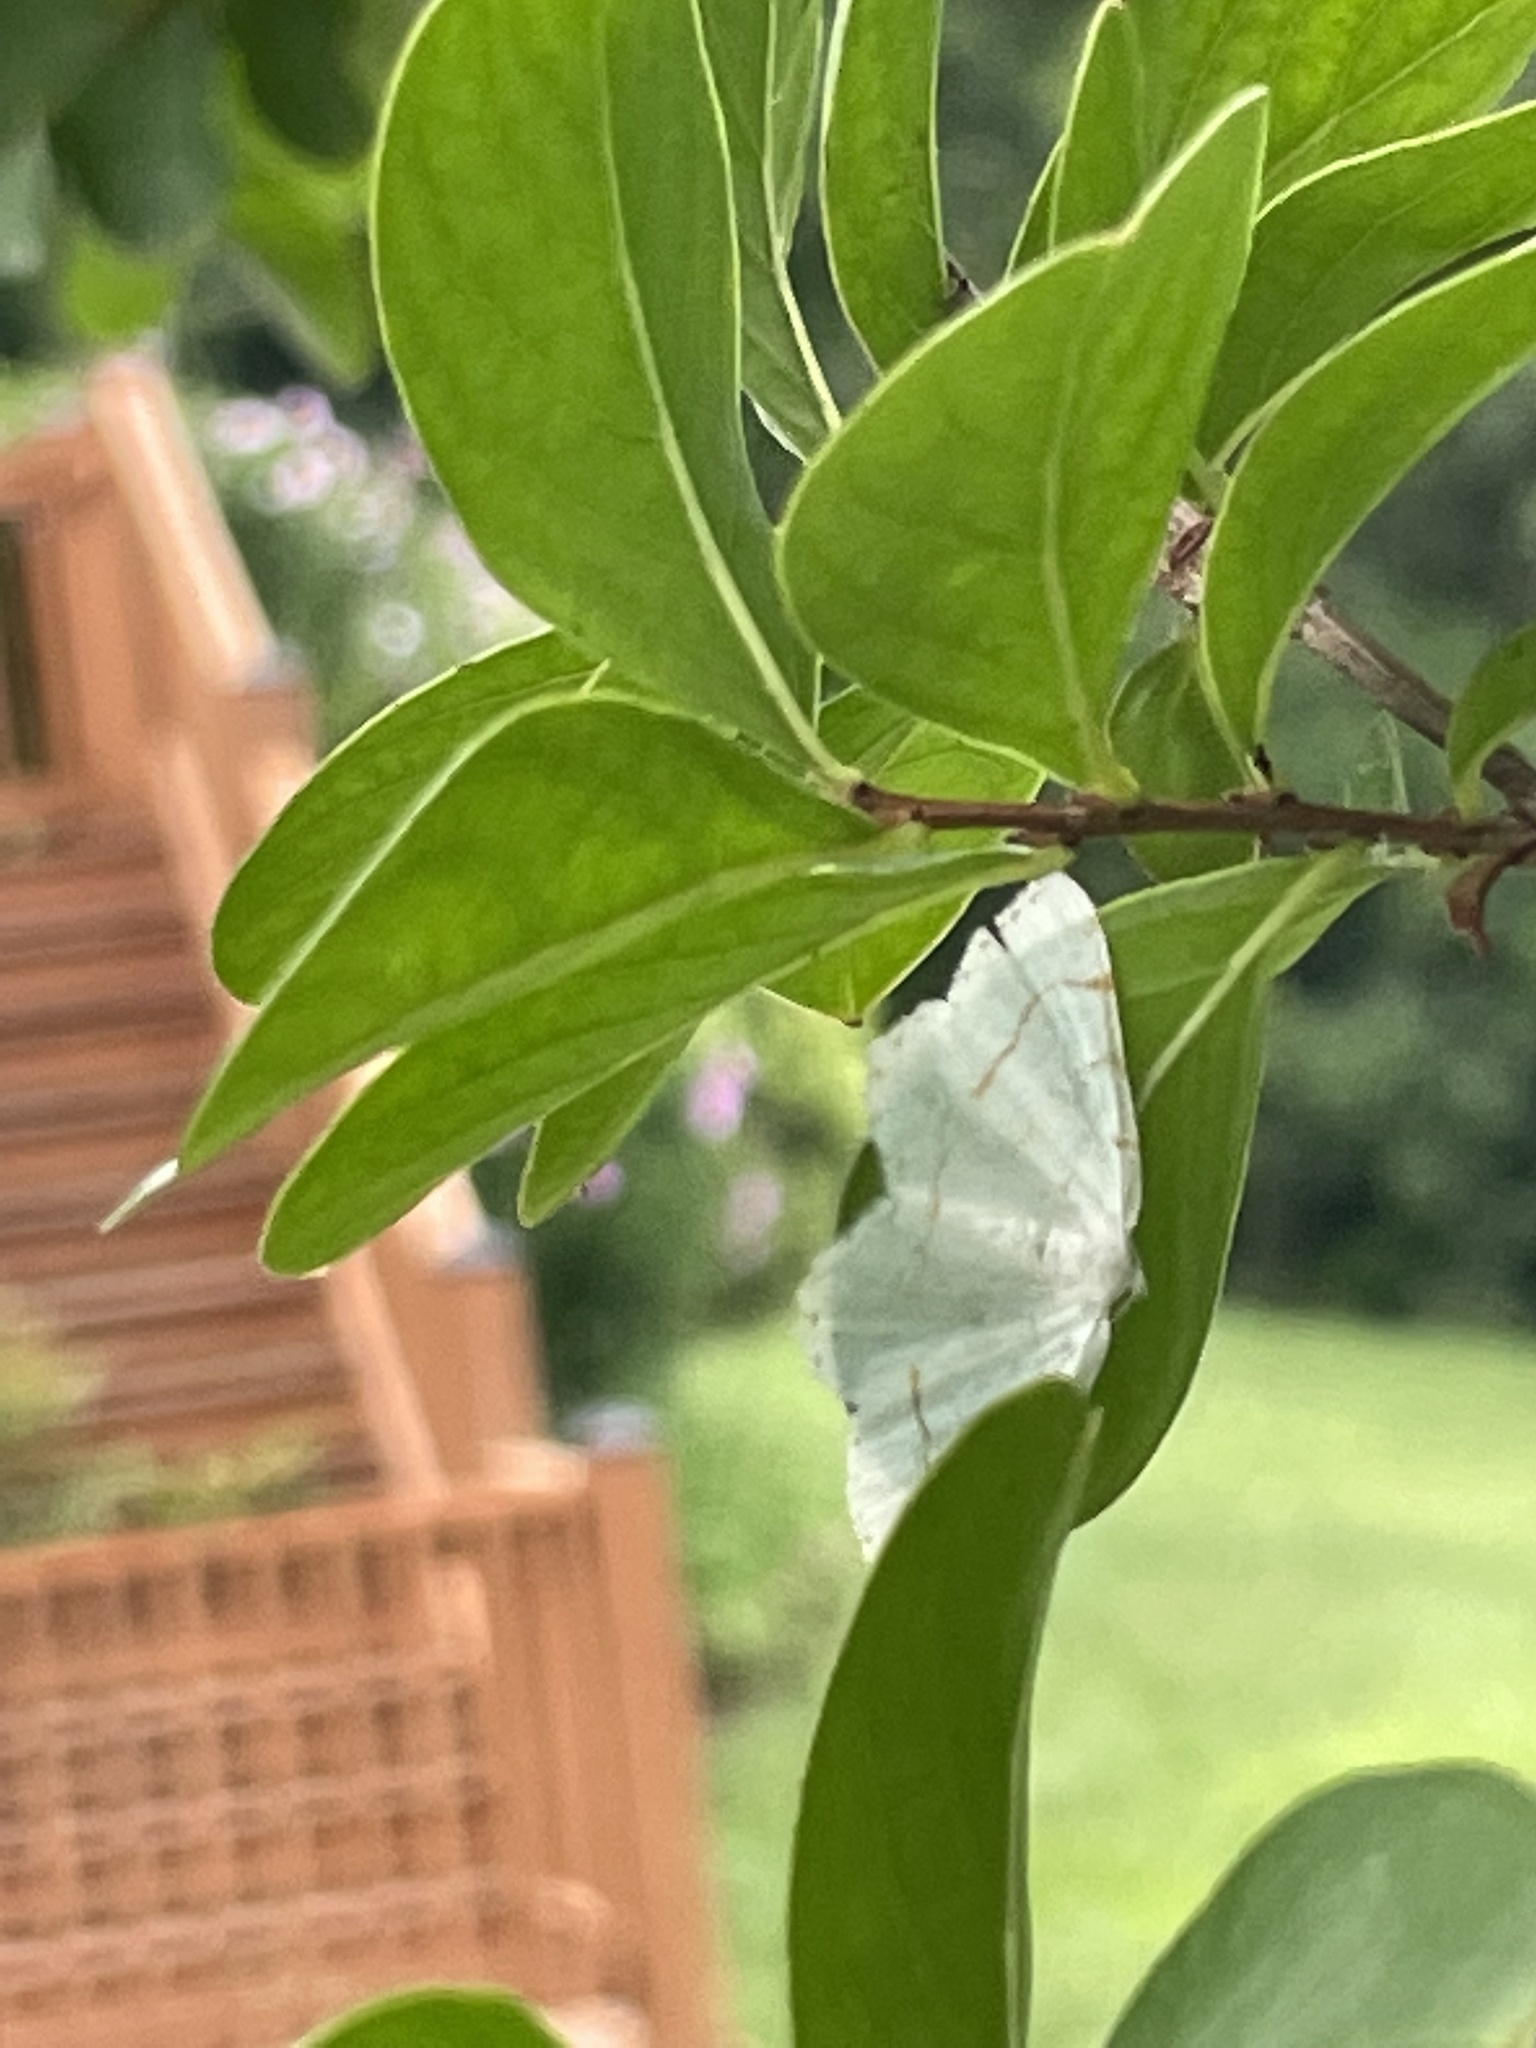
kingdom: Animalia
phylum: Arthropoda
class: Insecta
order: Lepidoptera
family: Geometridae
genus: Macaria
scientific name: Macaria pustularia
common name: Lesser maple spanworm moth
